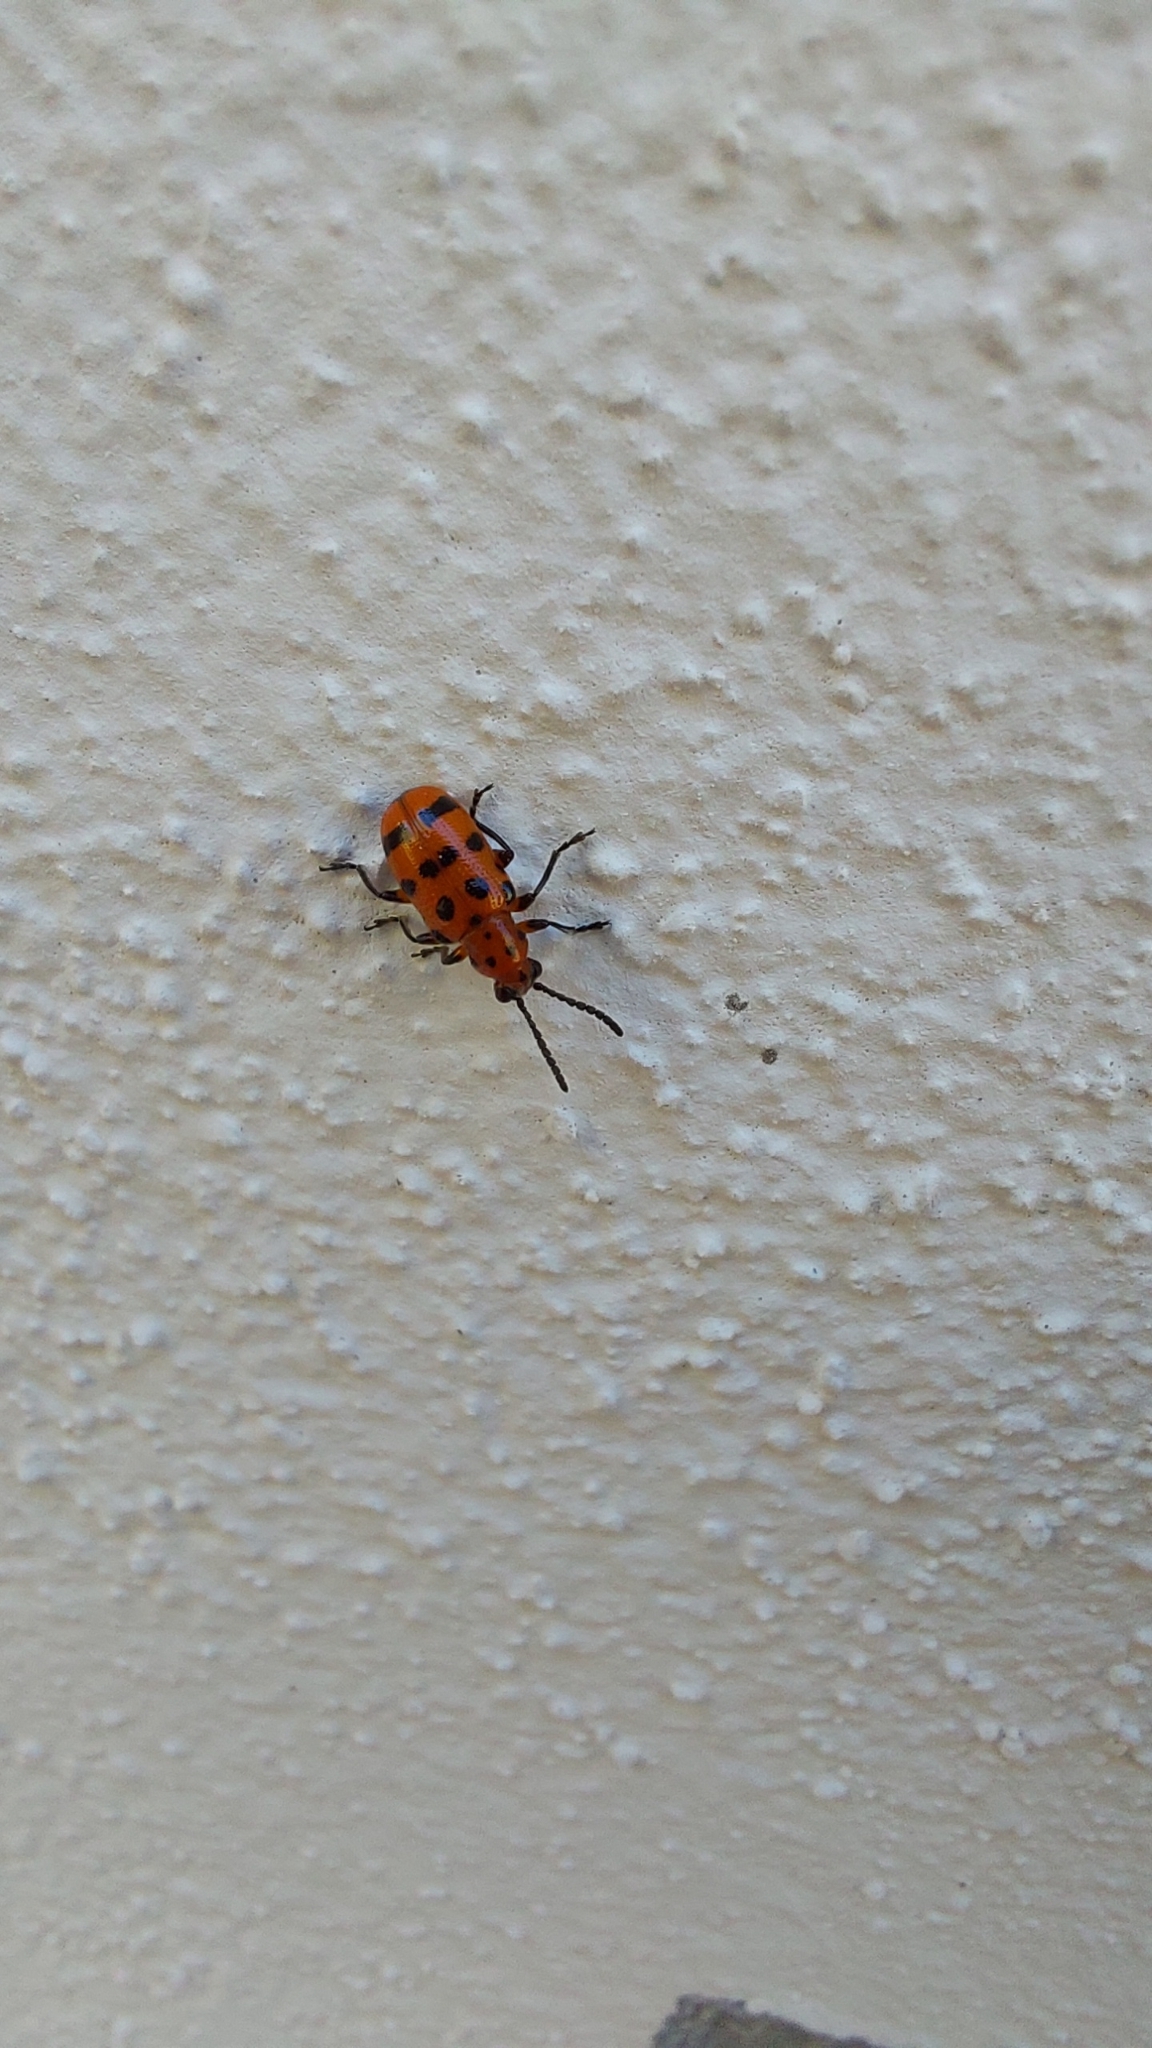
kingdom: Animalia
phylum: Arthropoda
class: Insecta
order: Coleoptera
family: Chrysomelidae
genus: Crioceris
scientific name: Crioceris quatuordecimpunctata
